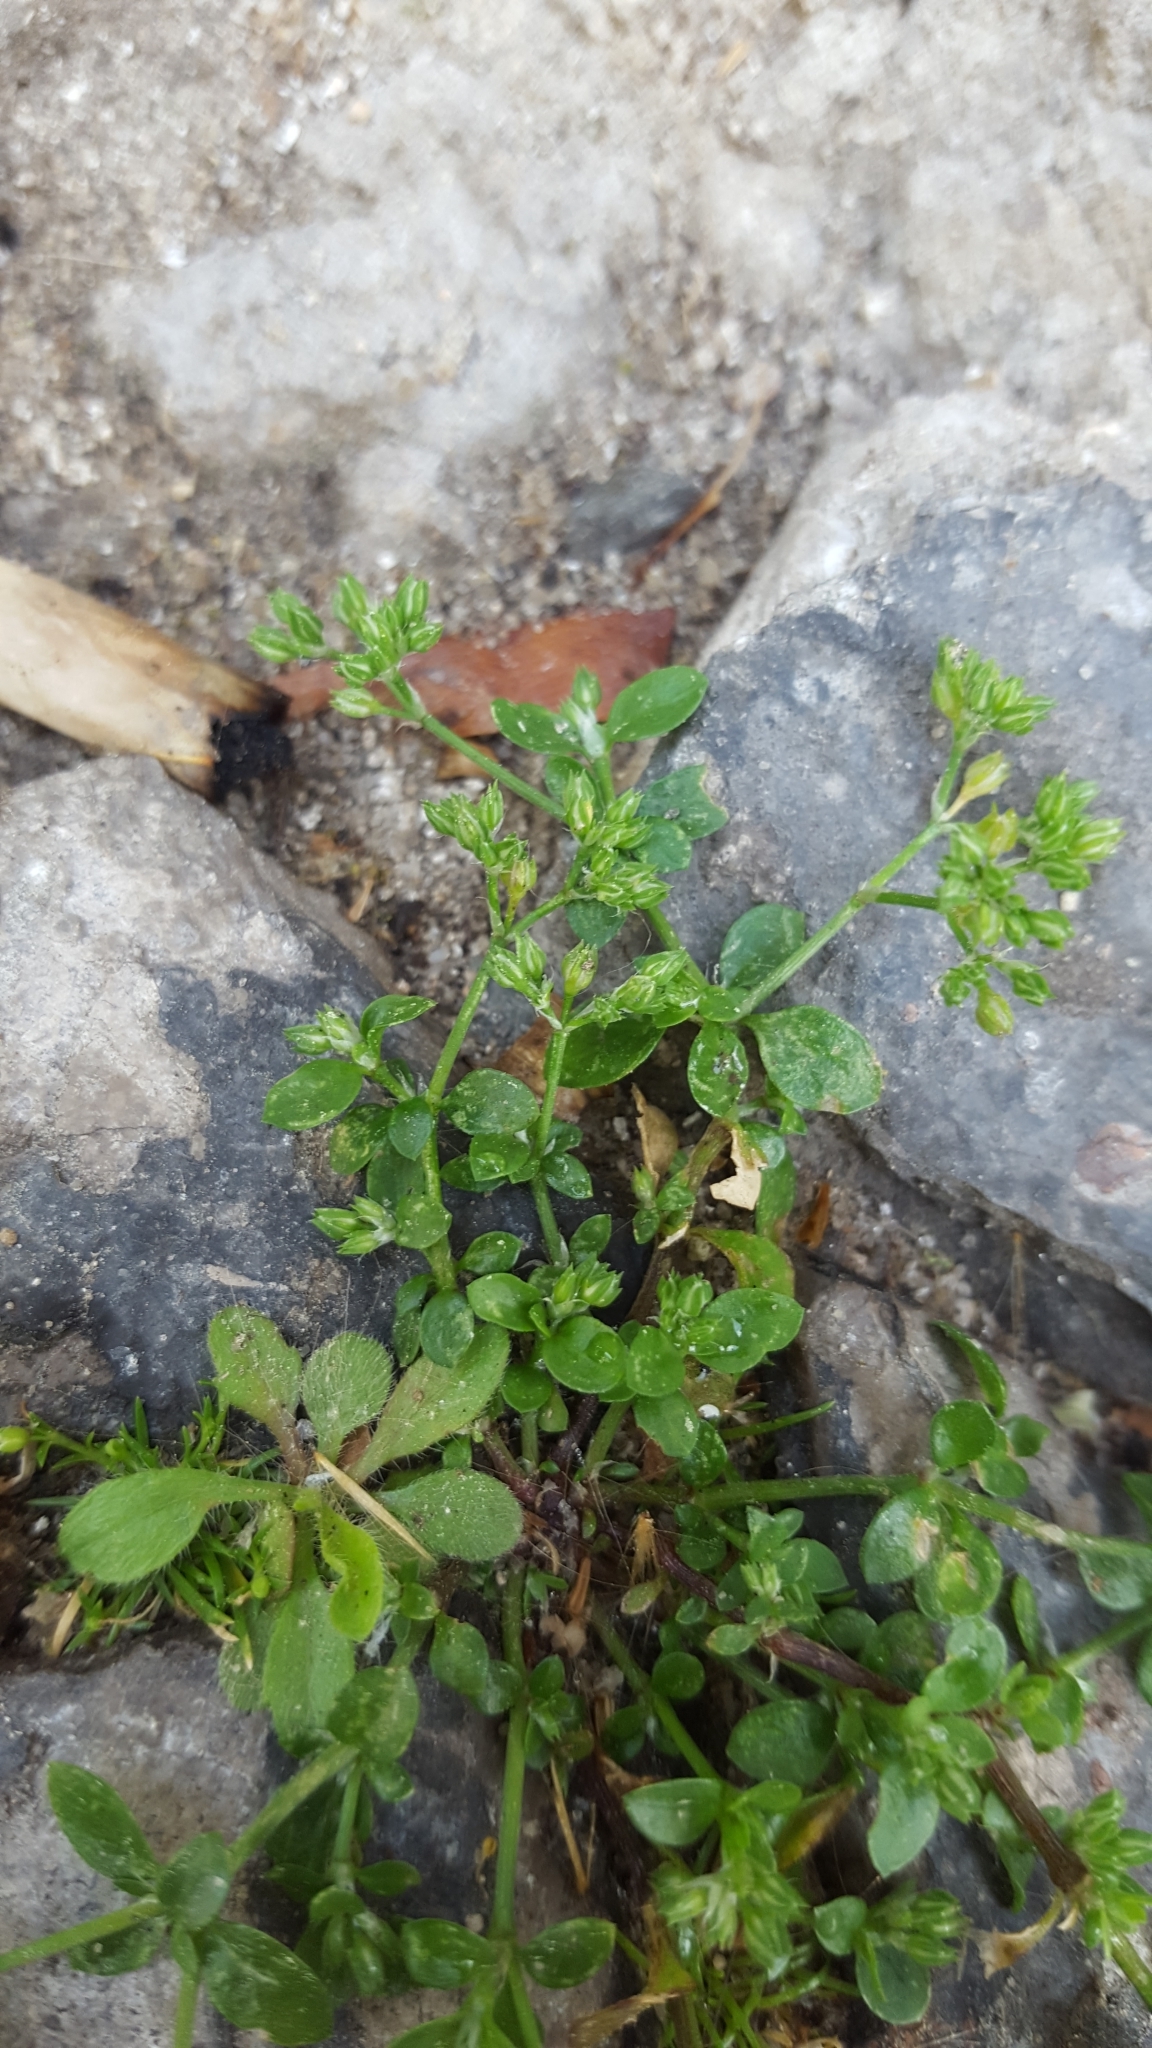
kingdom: Plantae
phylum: Tracheophyta
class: Magnoliopsida
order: Caryophyllales
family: Caryophyllaceae
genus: Polycarpon
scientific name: Polycarpon tetraphyllum
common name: Four-leaved all-seed
